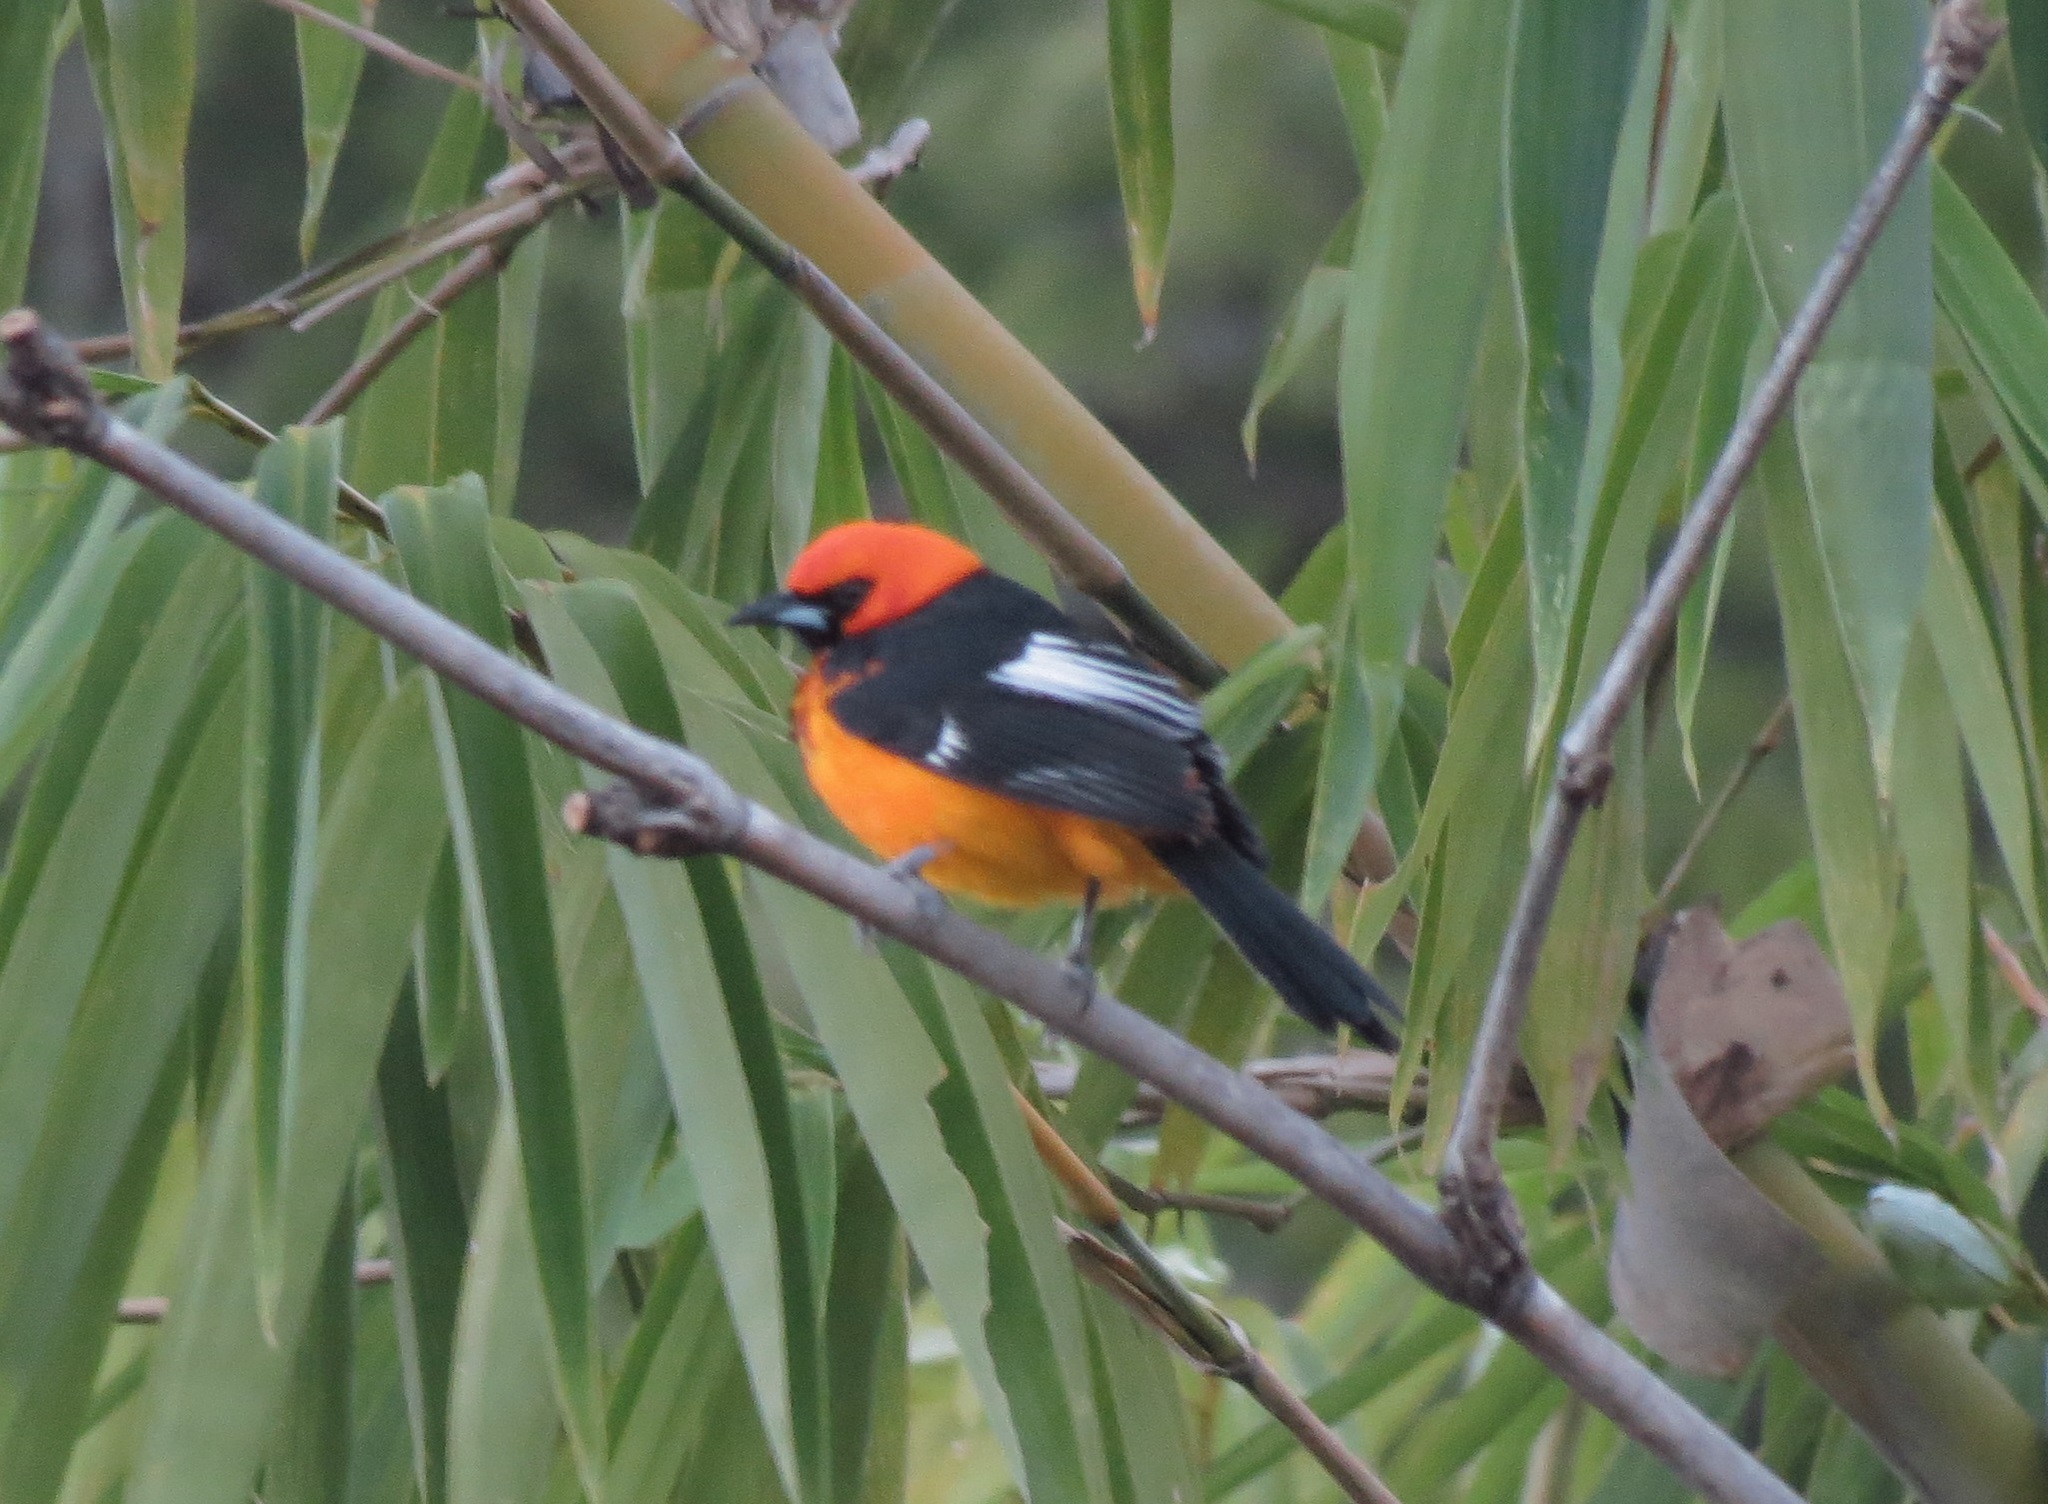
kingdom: Animalia
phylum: Chordata
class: Aves
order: Passeriformes
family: Icteridae
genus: Icterus
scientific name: Icterus pectoralis
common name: Spot-breasted oriole
